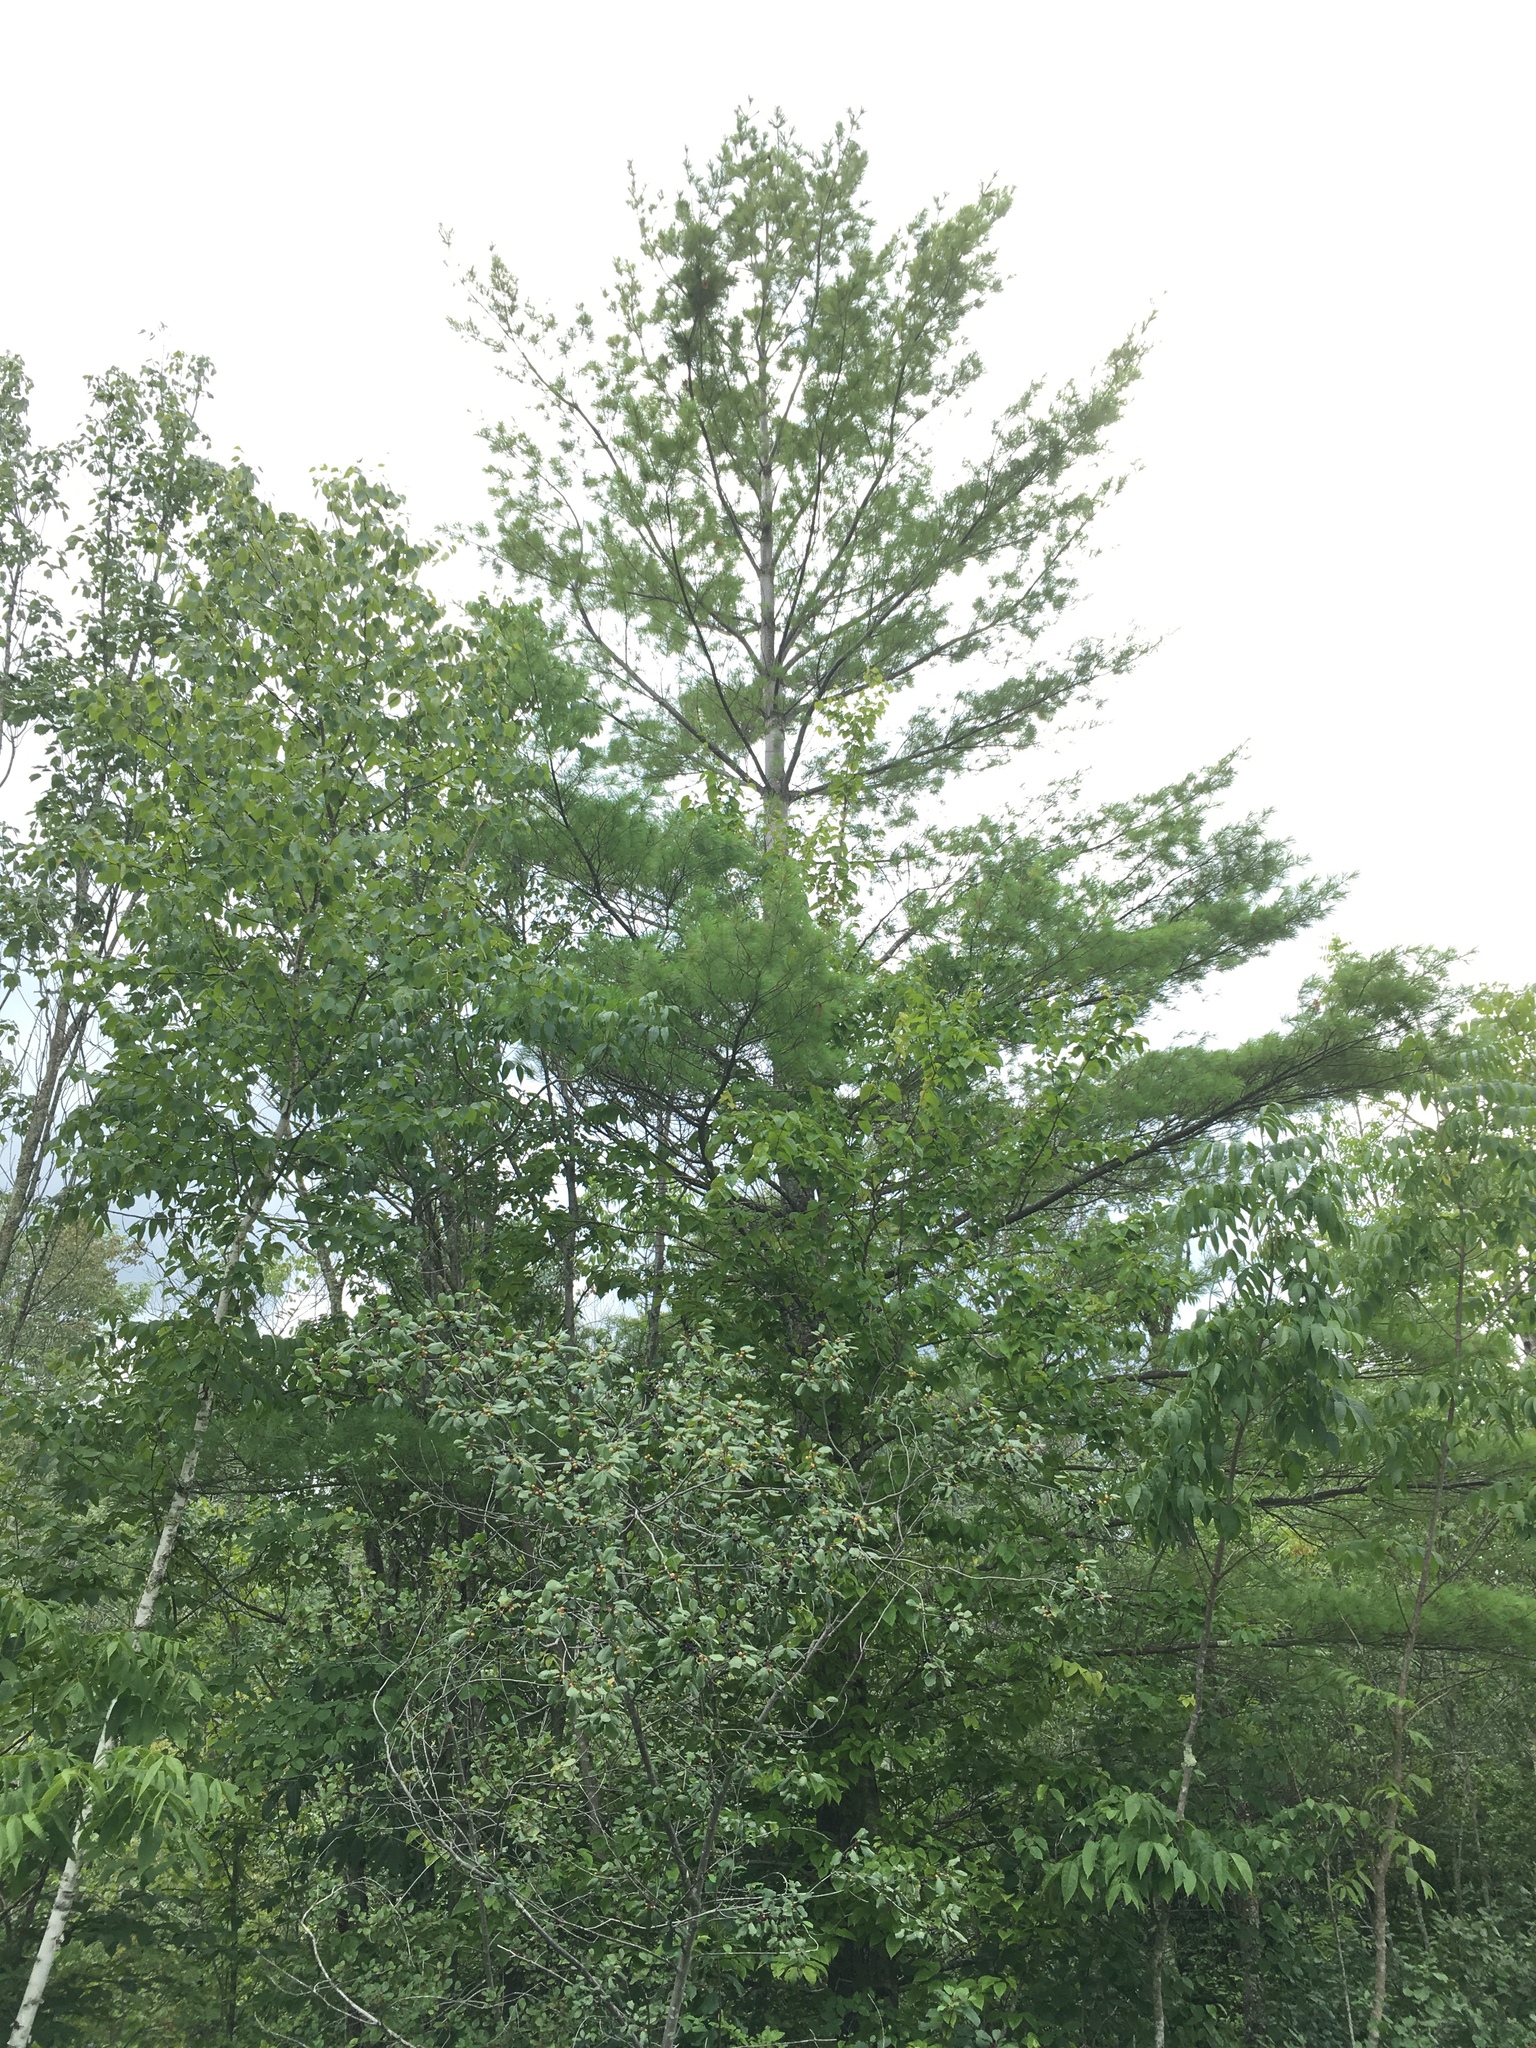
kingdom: Plantae
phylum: Tracheophyta
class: Pinopsida
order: Pinales
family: Pinaceae
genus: Pinus
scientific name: Pinus strobus
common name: Weymouth pine
